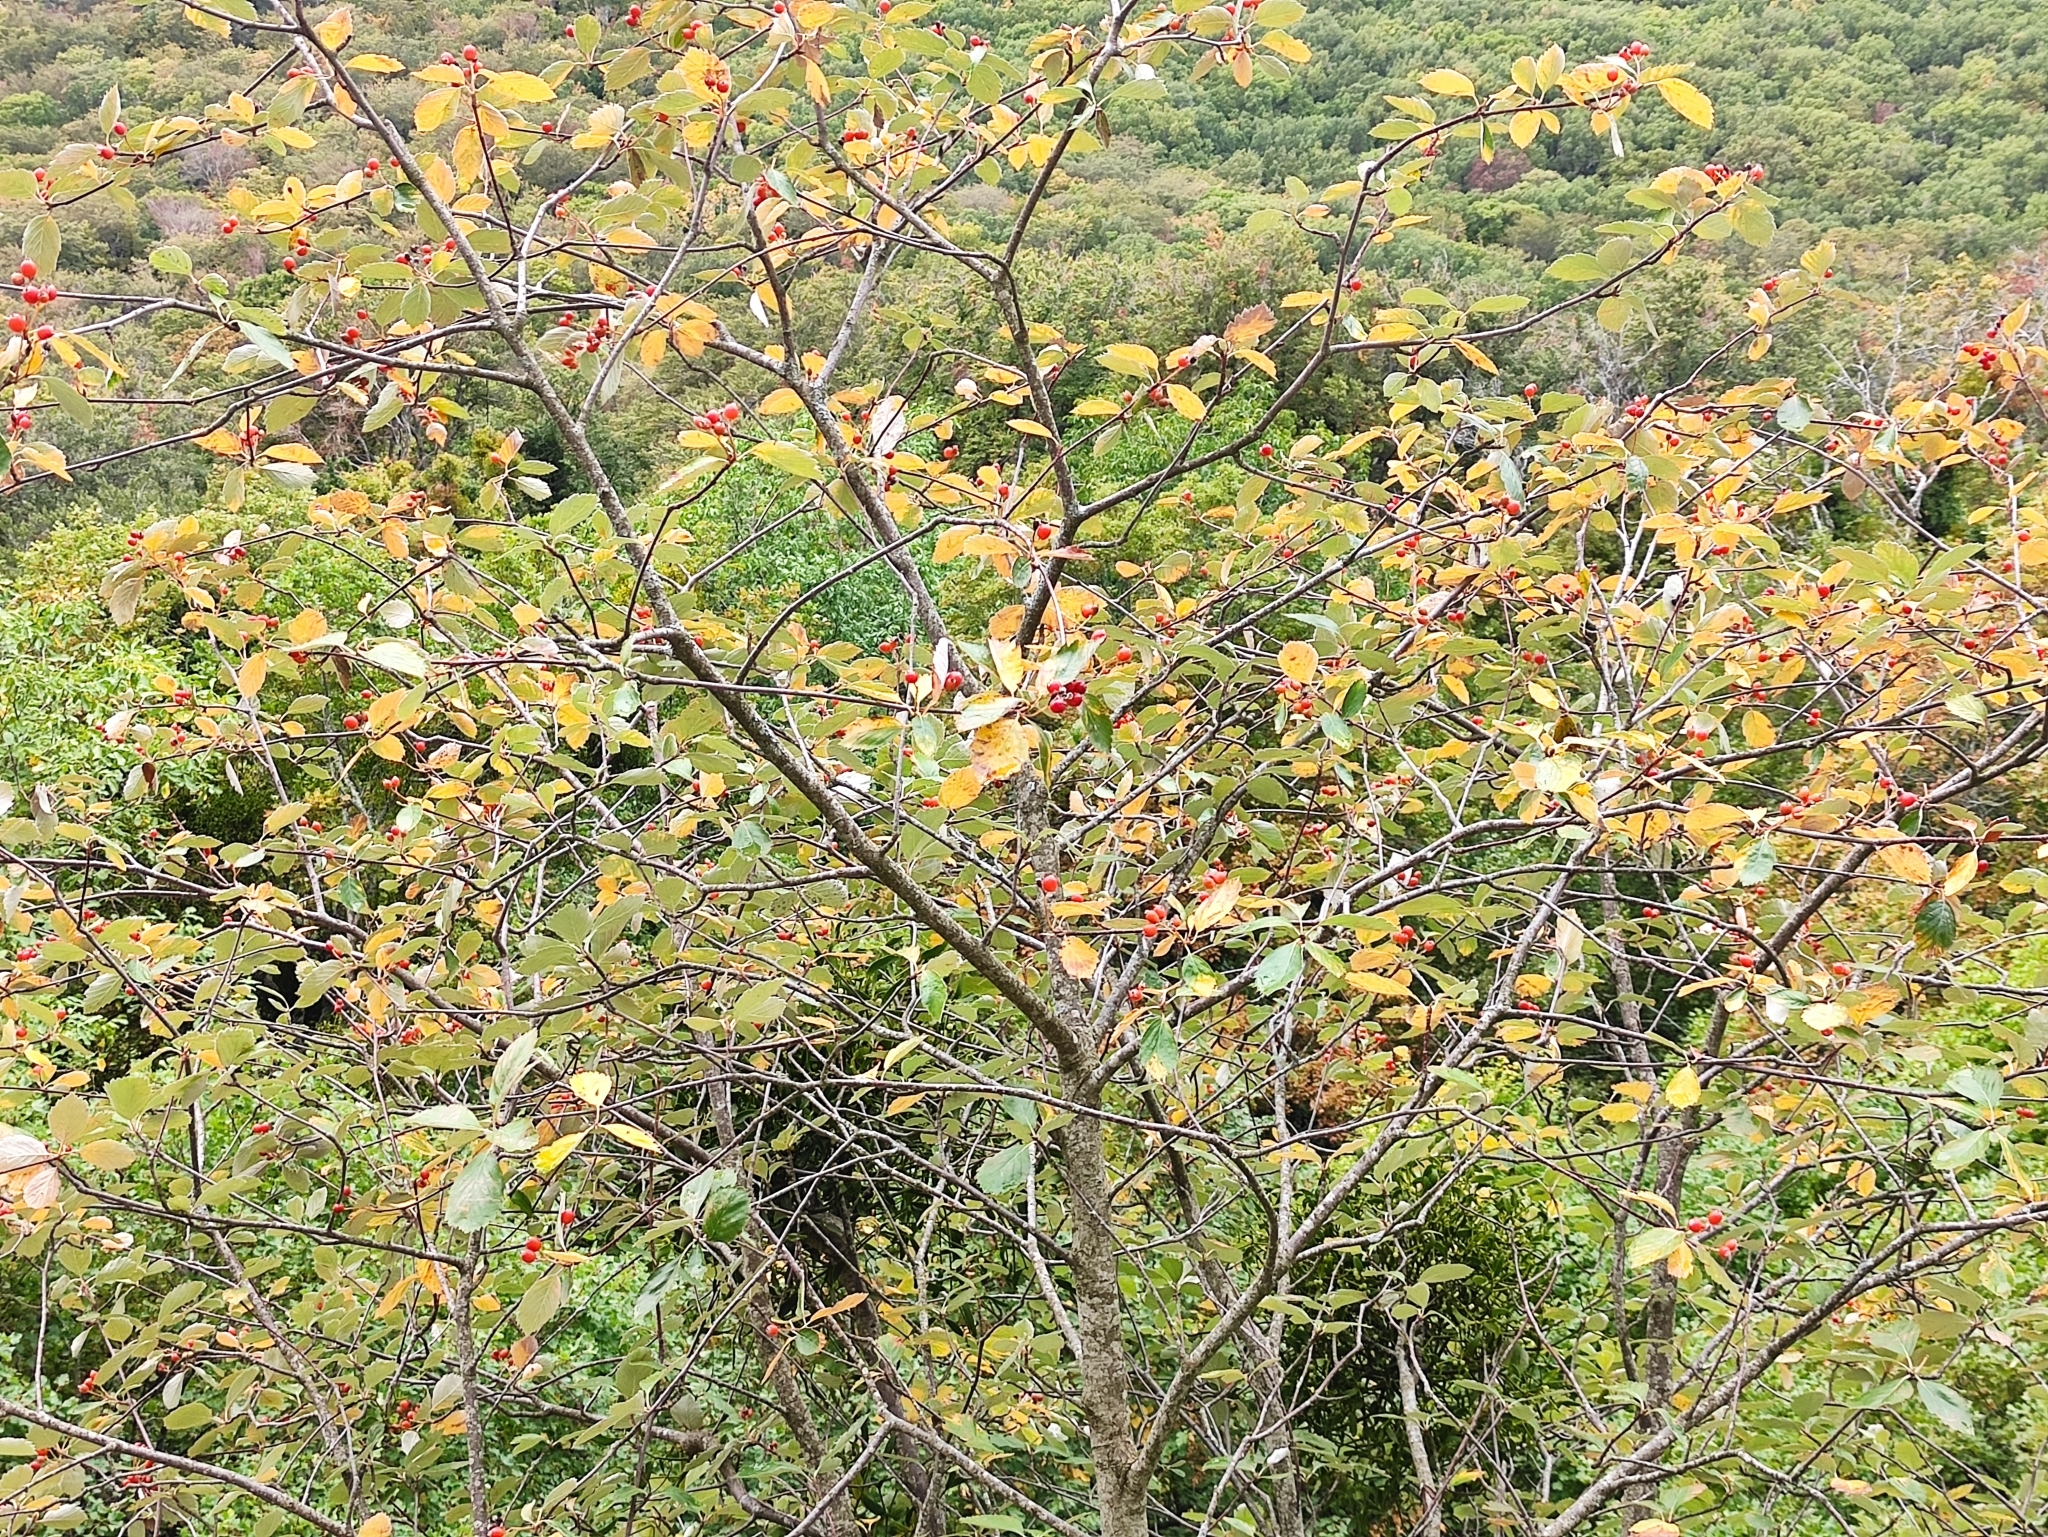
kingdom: Plantae
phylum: Tracheophyta
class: Magnoliopsida
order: Rosales
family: Rosaceae
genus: Aria
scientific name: Aria edulis
